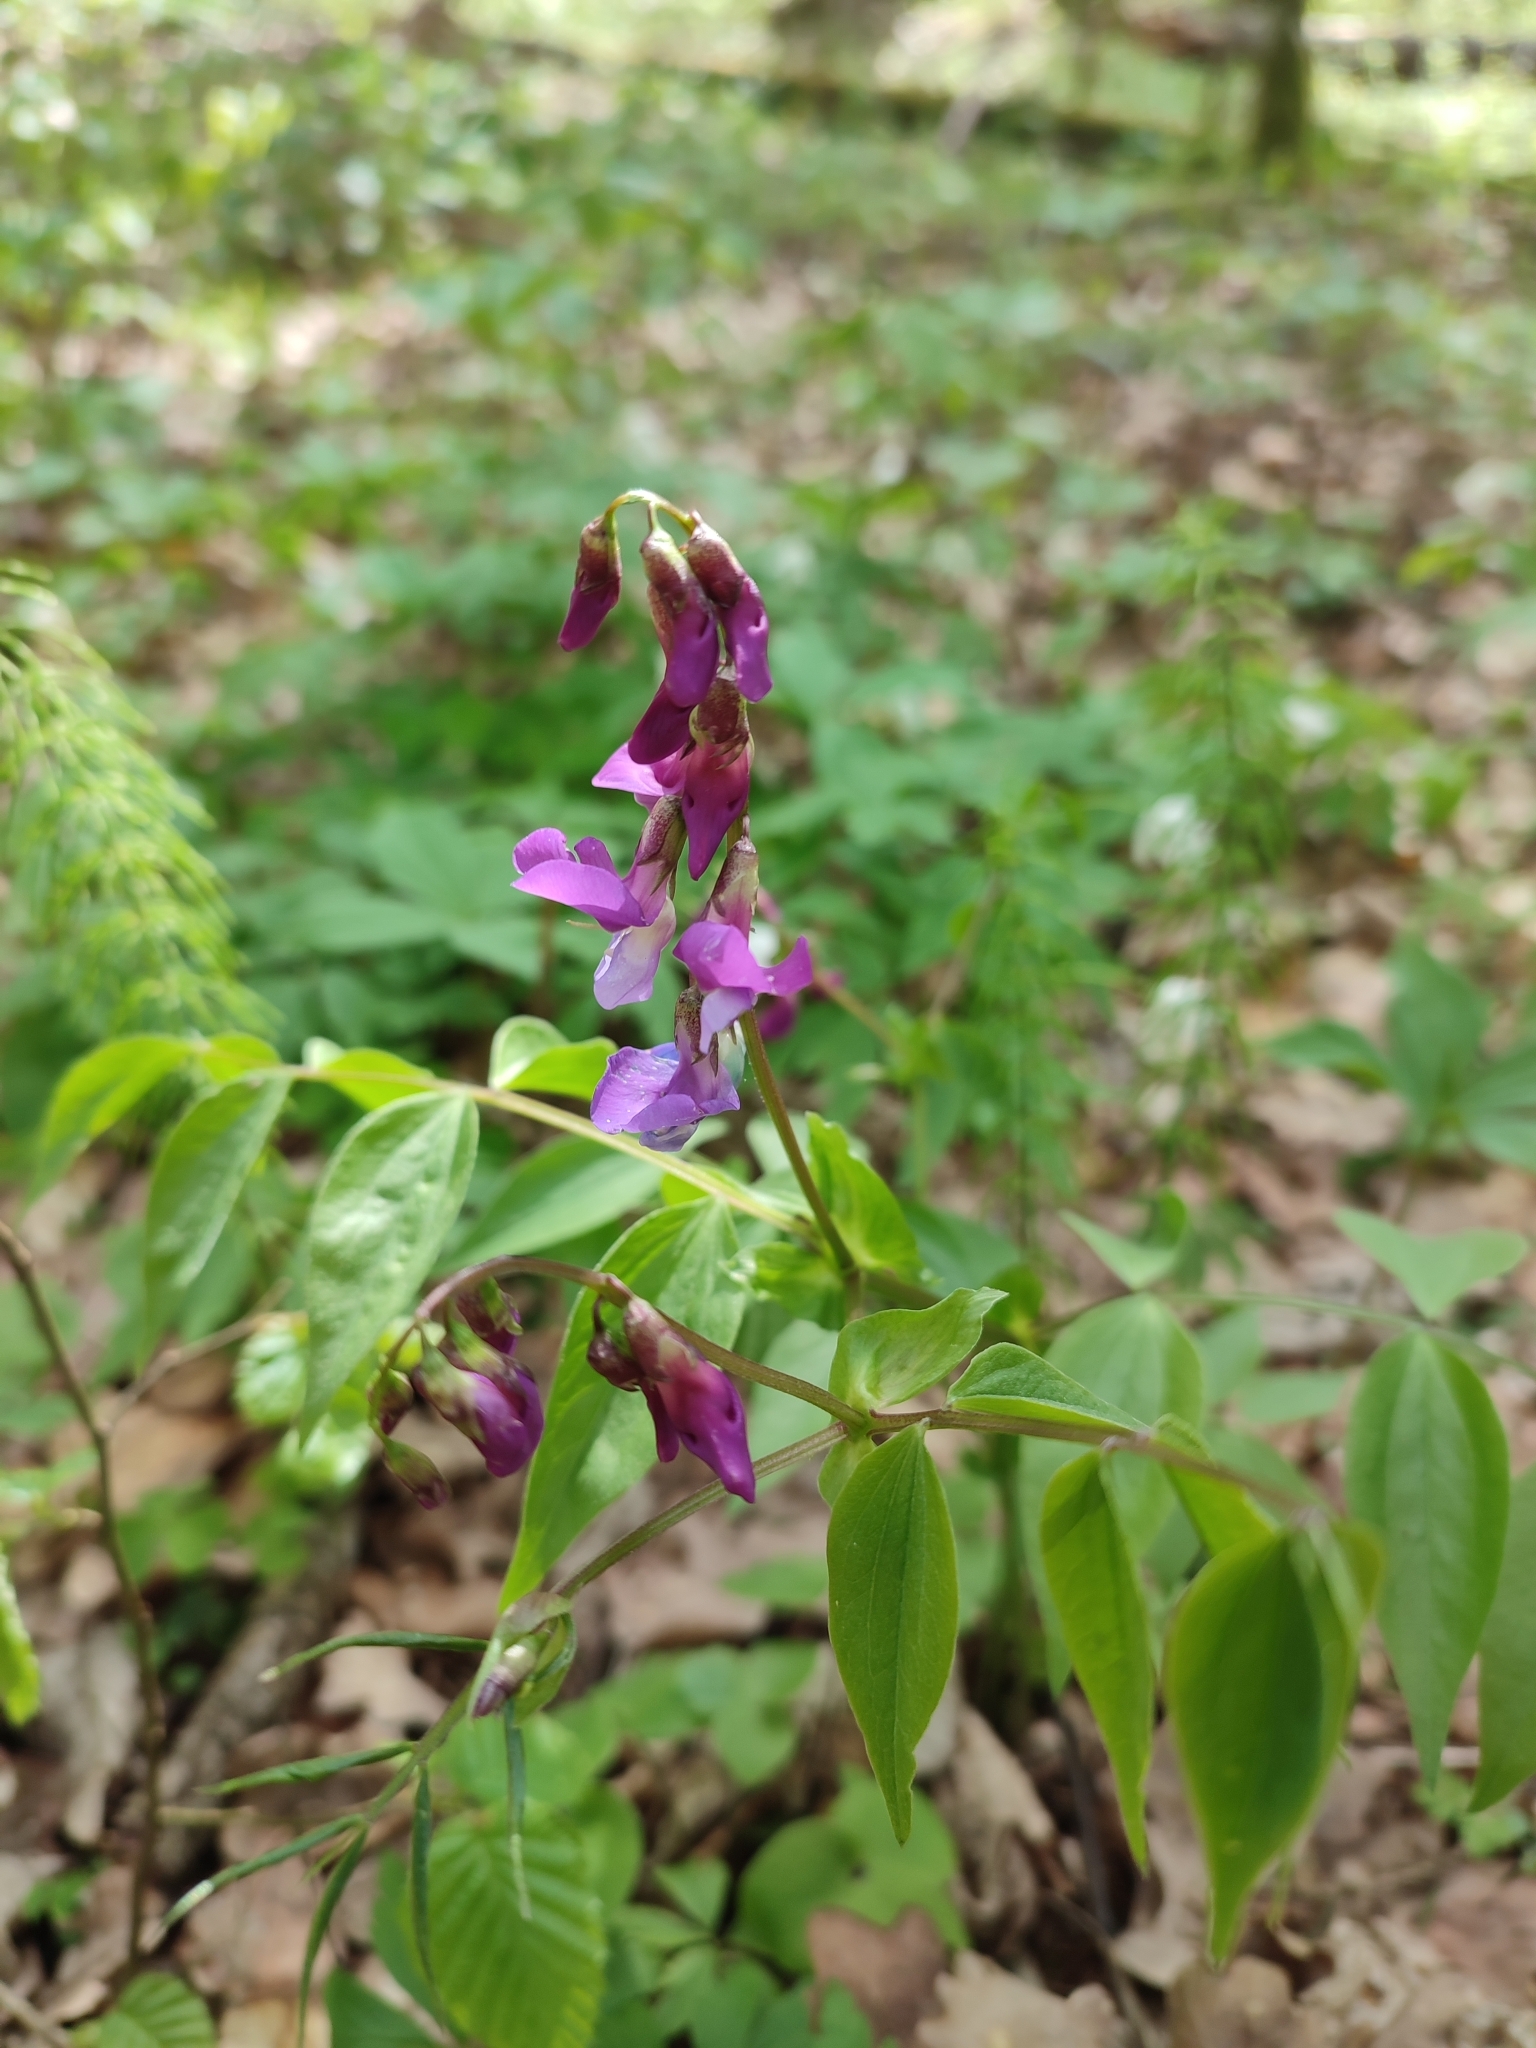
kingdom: Plantae
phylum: Tracheophyta
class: Magnoliopsida
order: Fabales
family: Fabaceae
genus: Lathyrus
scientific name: Lathyrus vernus
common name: Spring pea
